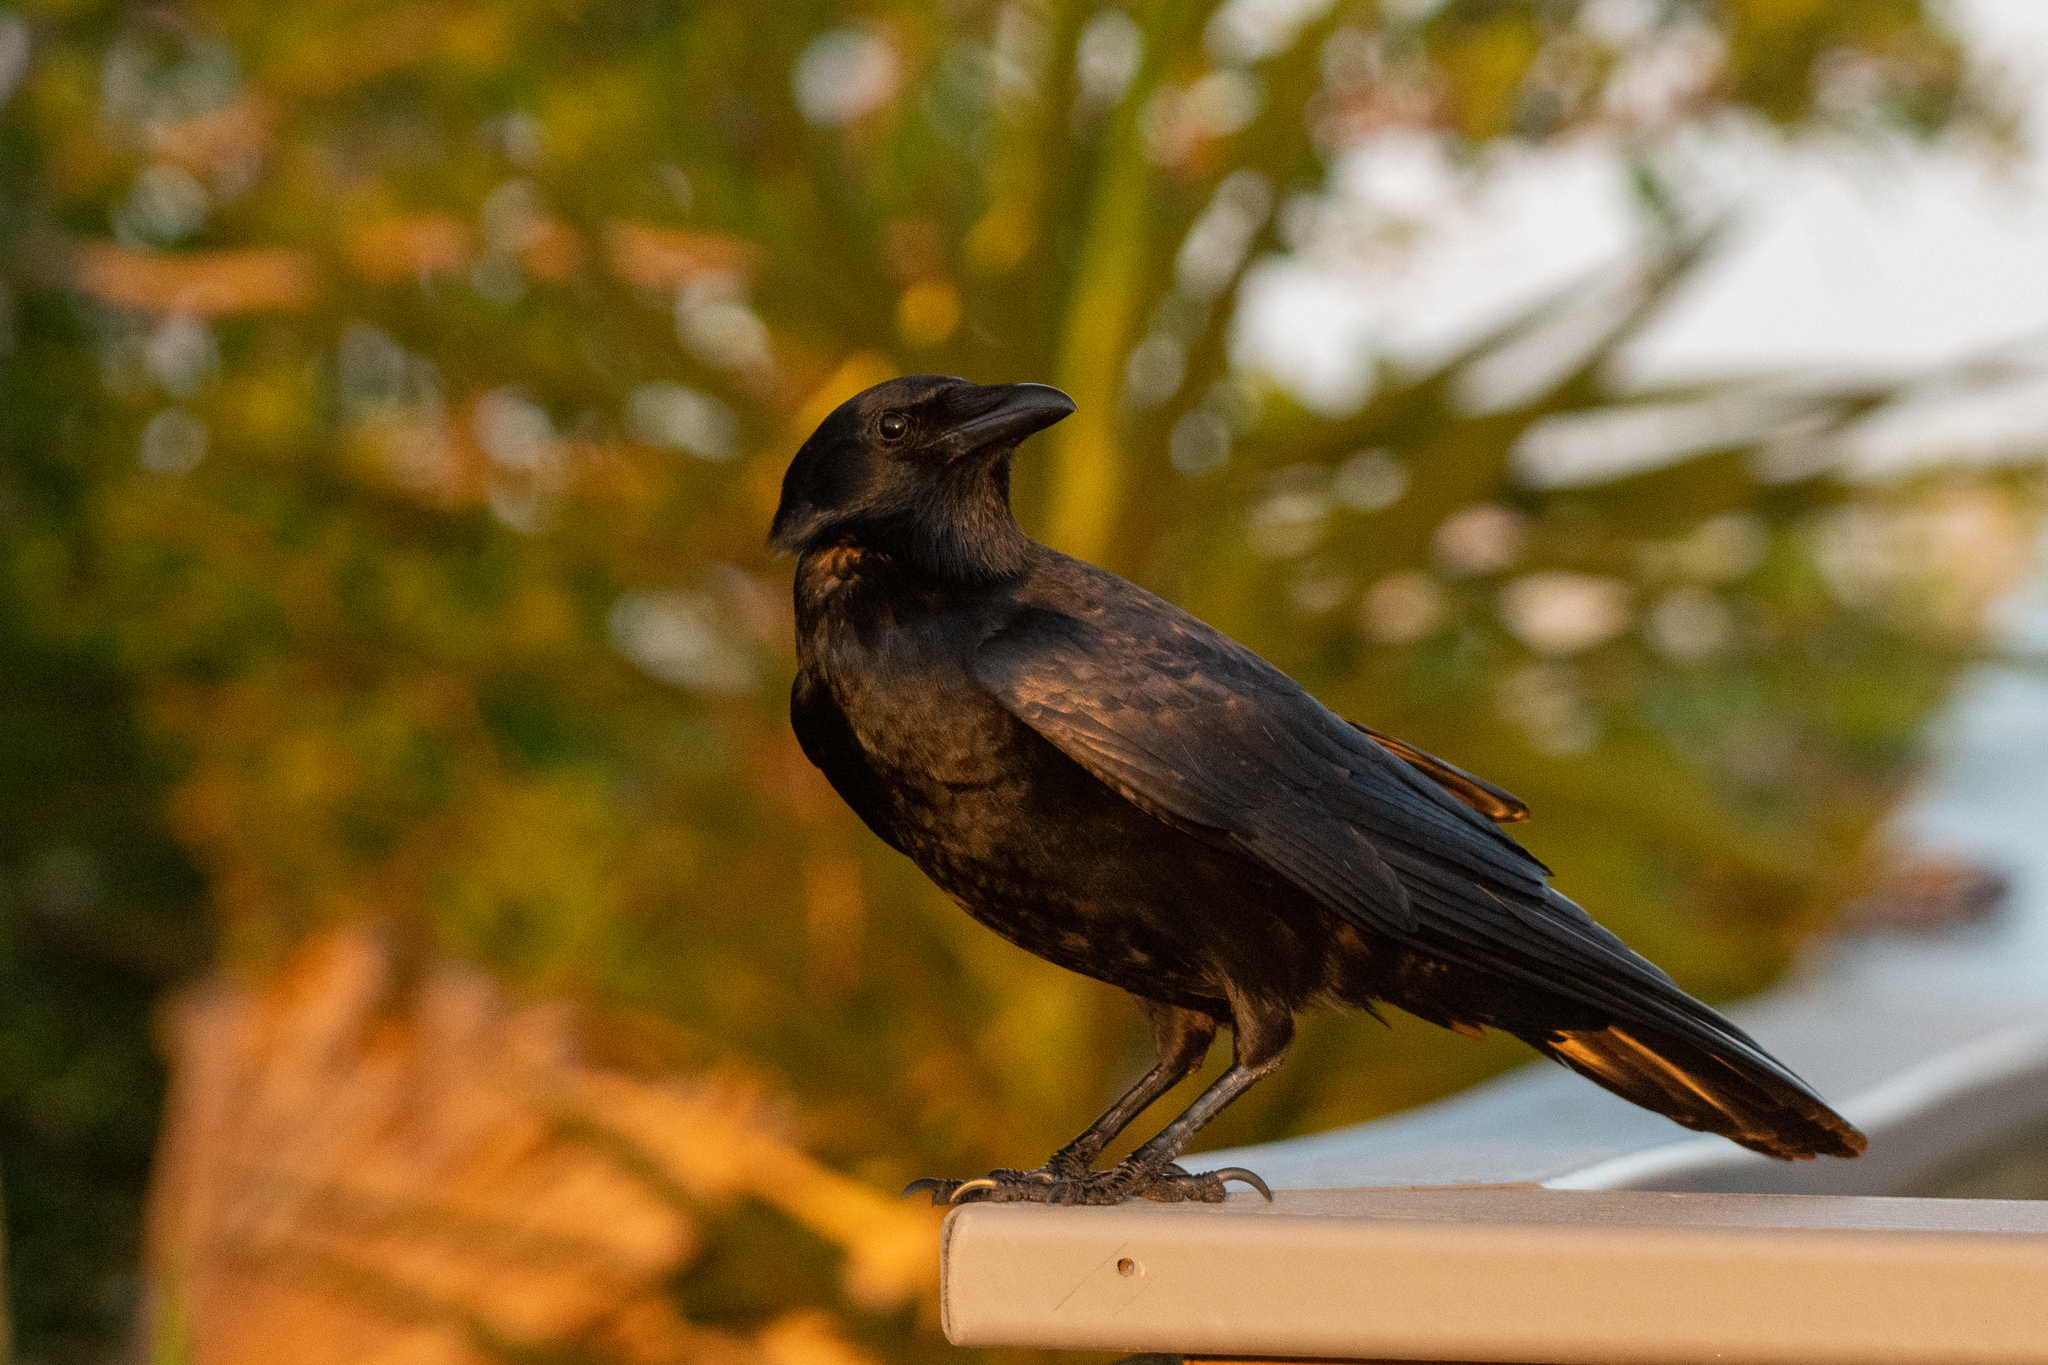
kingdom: Animalia
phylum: Chordata
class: Aves
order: Passeriformes
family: Corvidae
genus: Corvus
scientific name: Corvus ossifragus
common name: Fish crow
